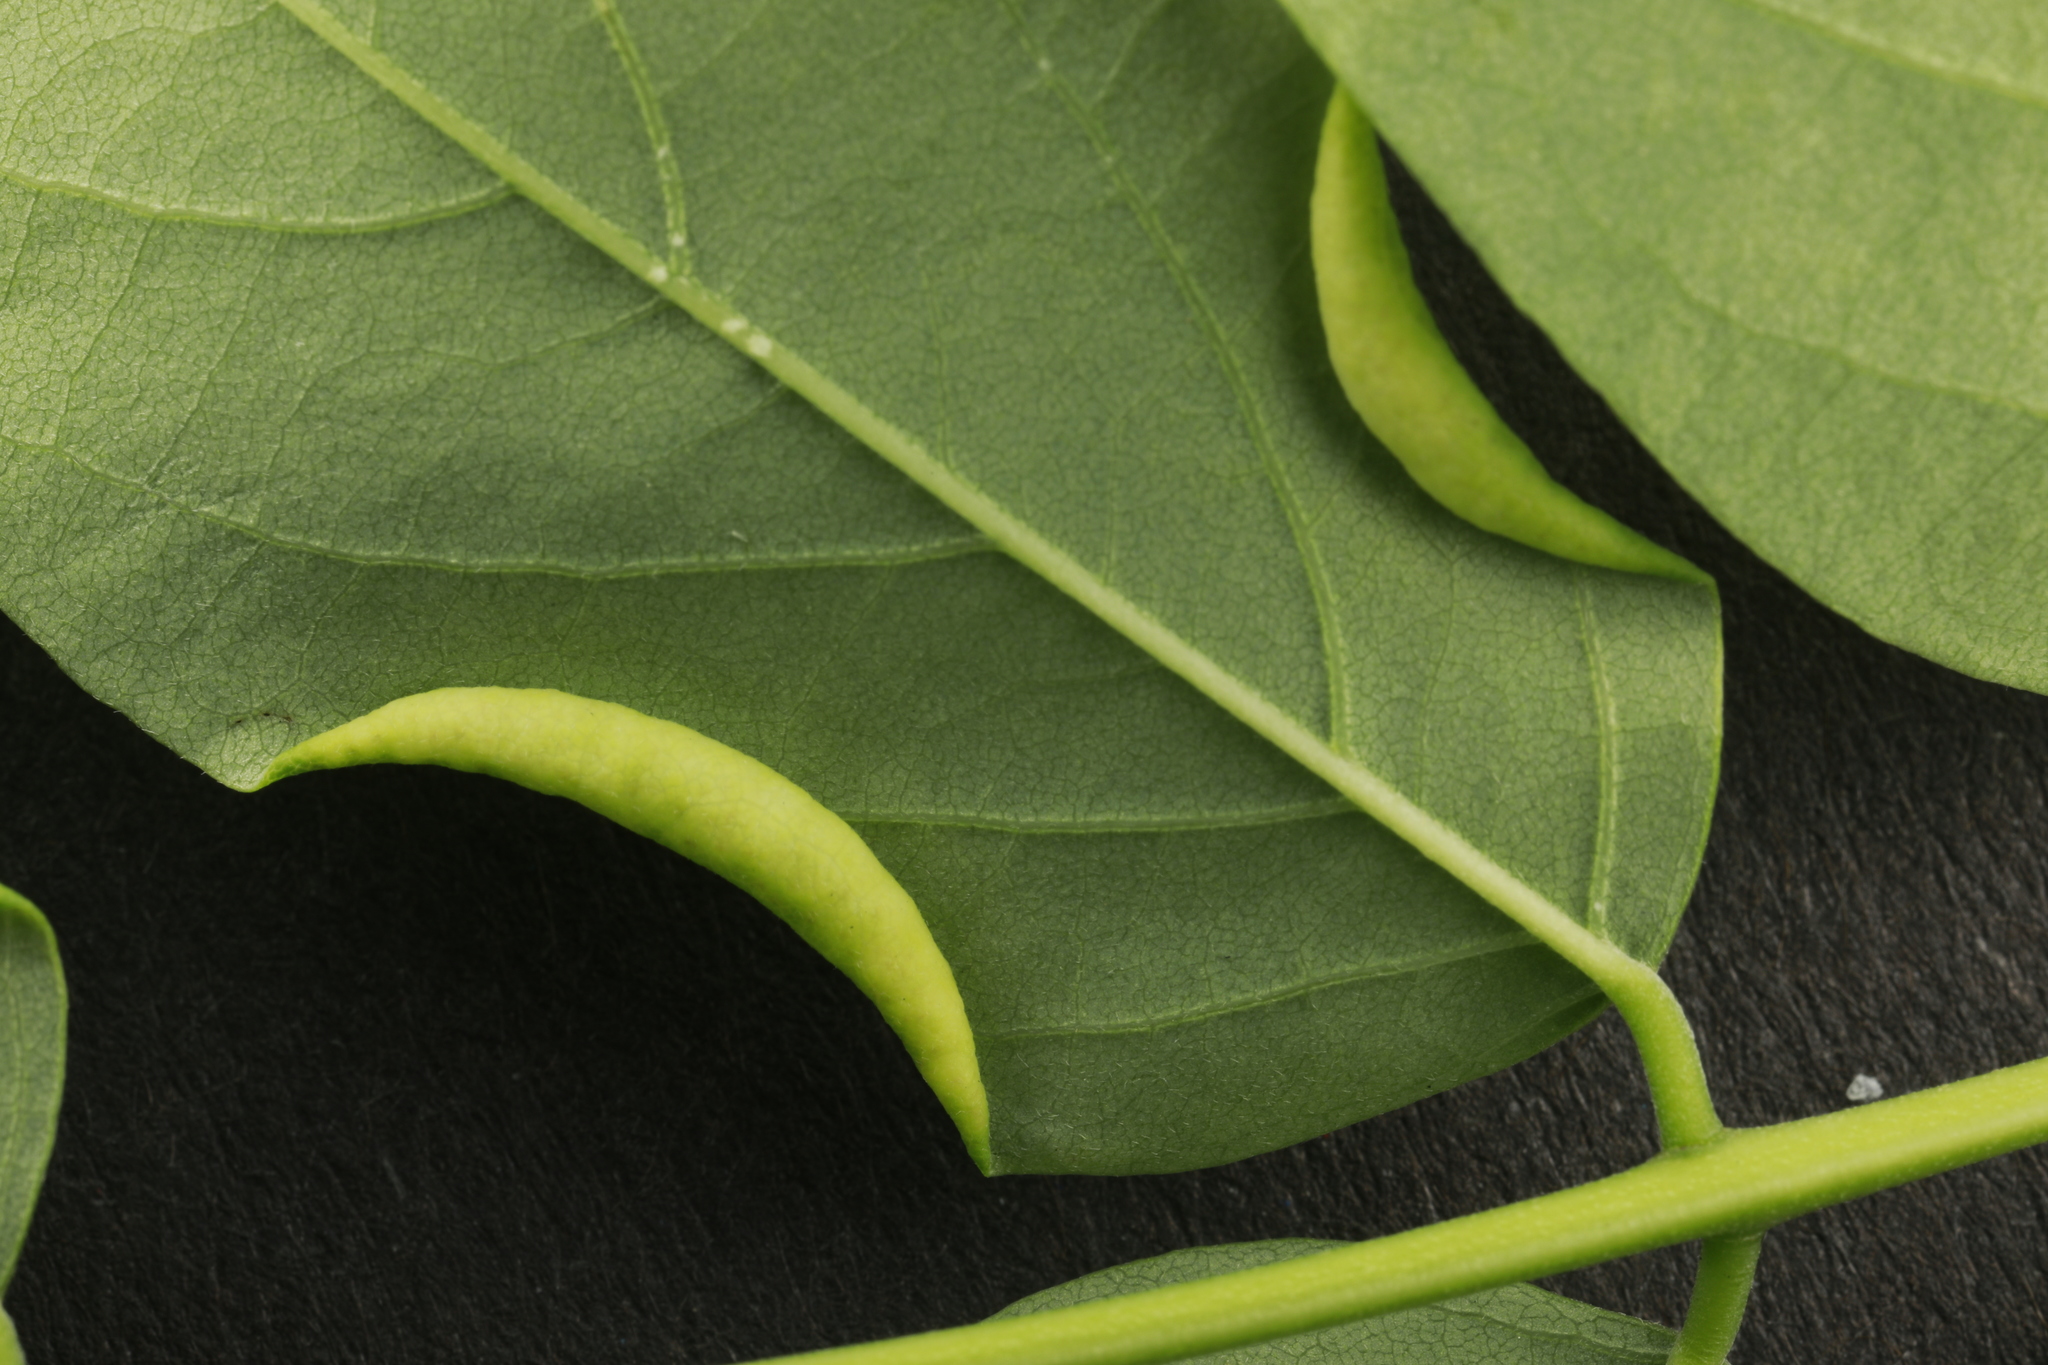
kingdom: Animalia
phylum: Arthropoda
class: Insecta
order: Diptera
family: Cecidomyiidae
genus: Obolodiplosis
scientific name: Obolodiplosis robiniae
